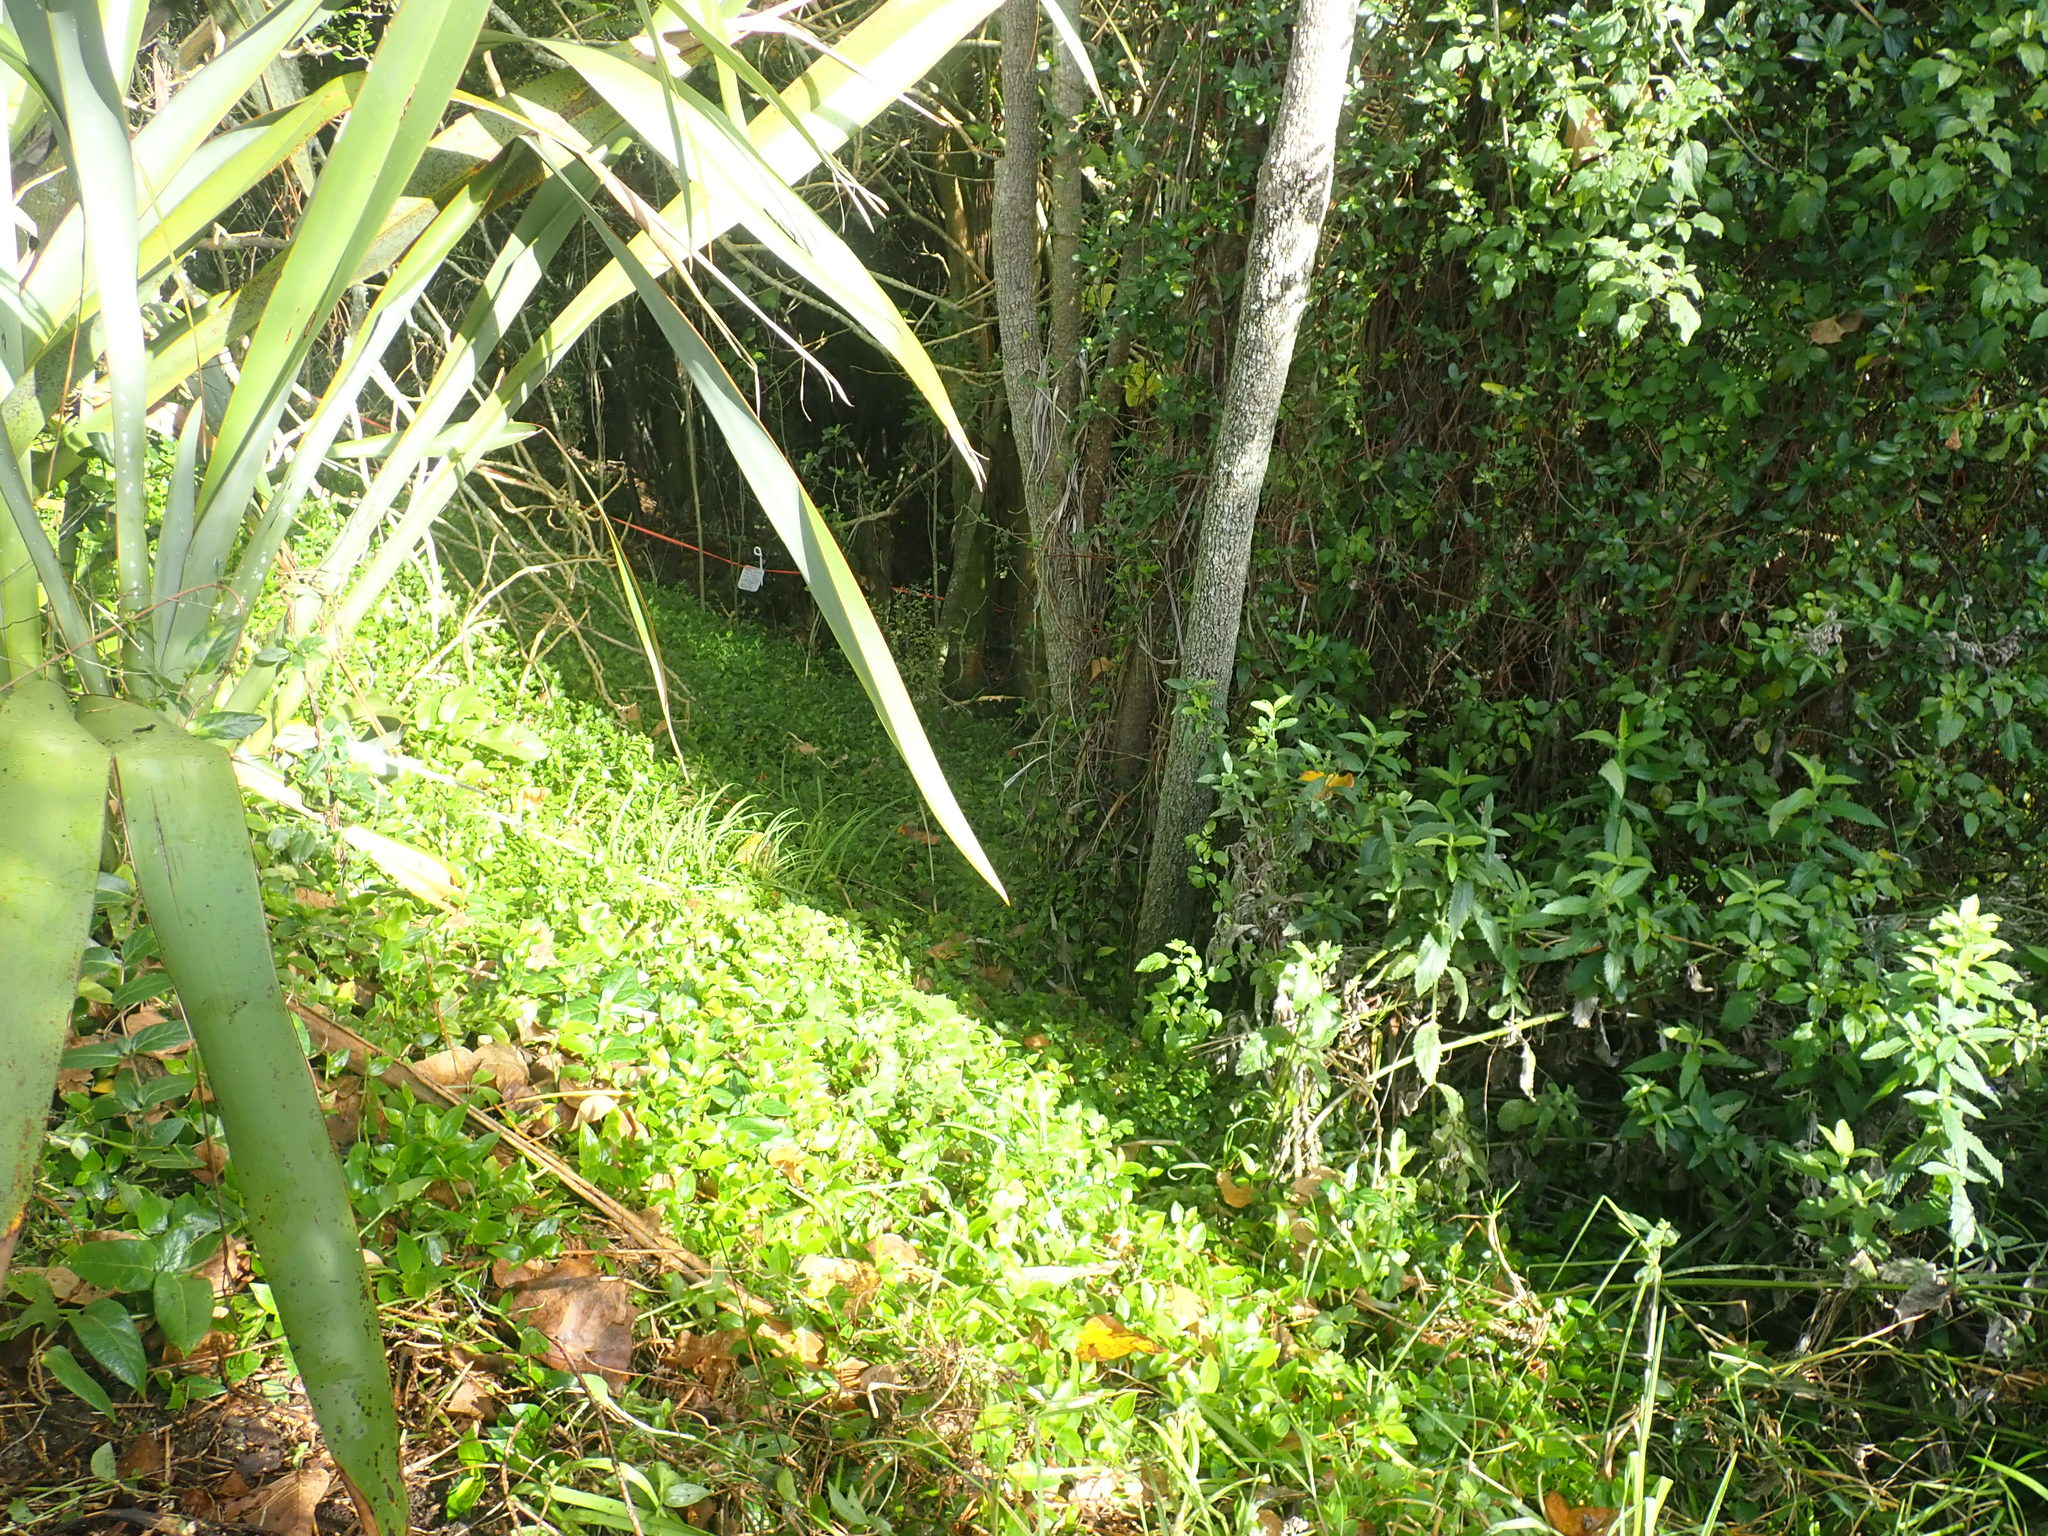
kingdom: Plantae
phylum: Tracheophyta
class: Magnoliopsida
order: Dipsacales
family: Caprifoliaceae
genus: Lonicera
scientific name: Lonicera japonica
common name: Japanese honeysuckle
